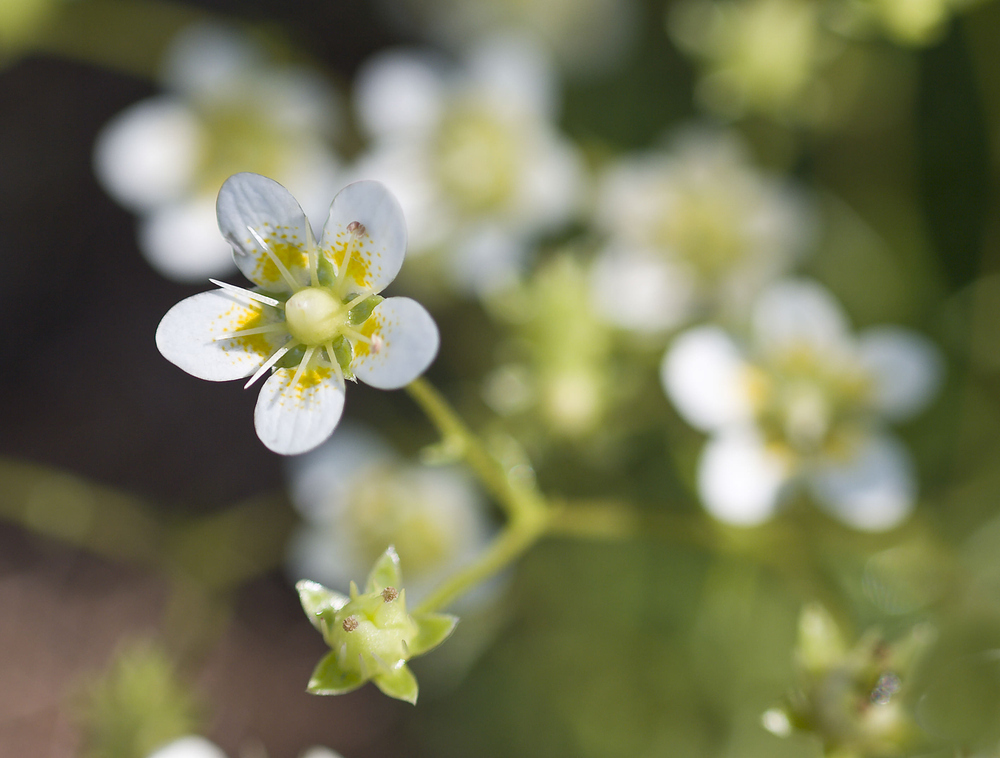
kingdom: Plantae
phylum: Tracheophyta
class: Magnoliopsida
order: Saxifragales
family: Saxifragaceae
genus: Saxifraga
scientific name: Saxifraga aspera
